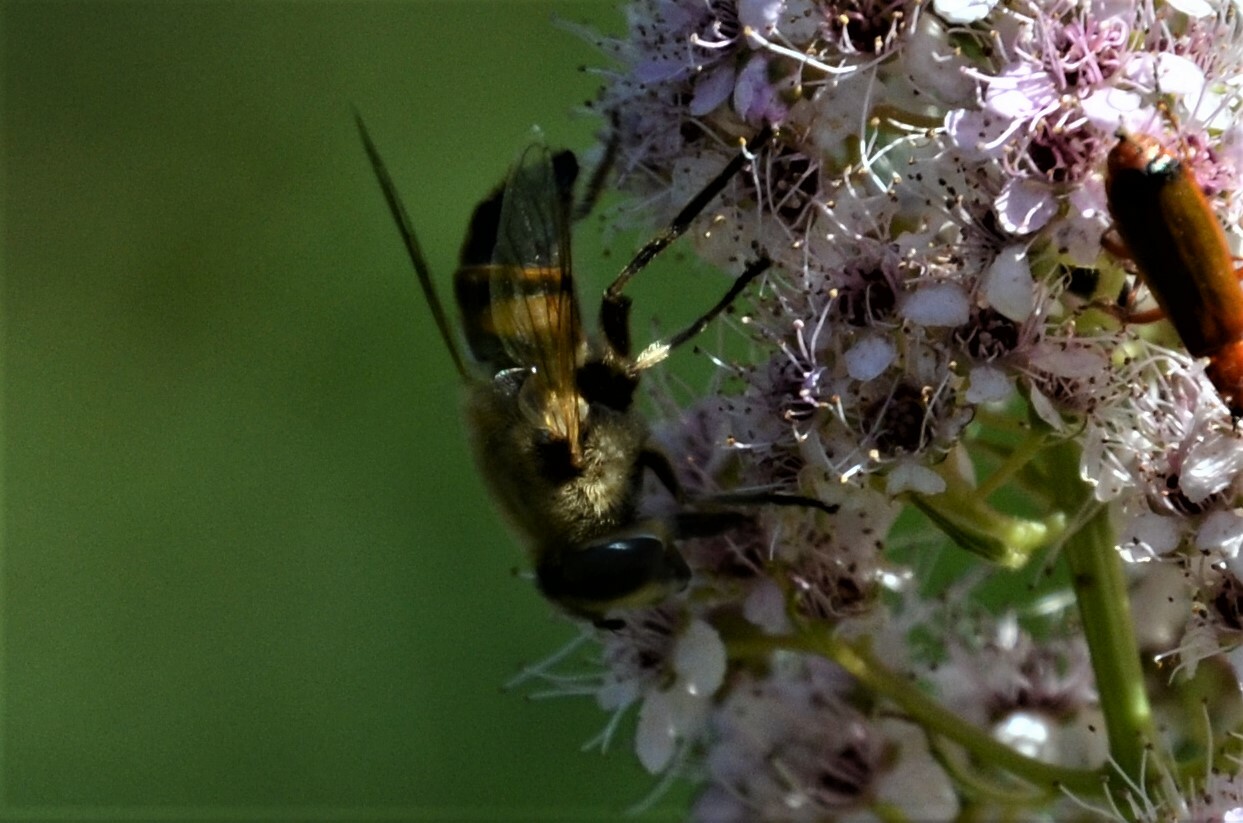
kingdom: Animalia
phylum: Arthropoda
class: Insecta
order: Diptera
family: Syrphidae
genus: Eristalis
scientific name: Eristalis tenax
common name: Drone fly
